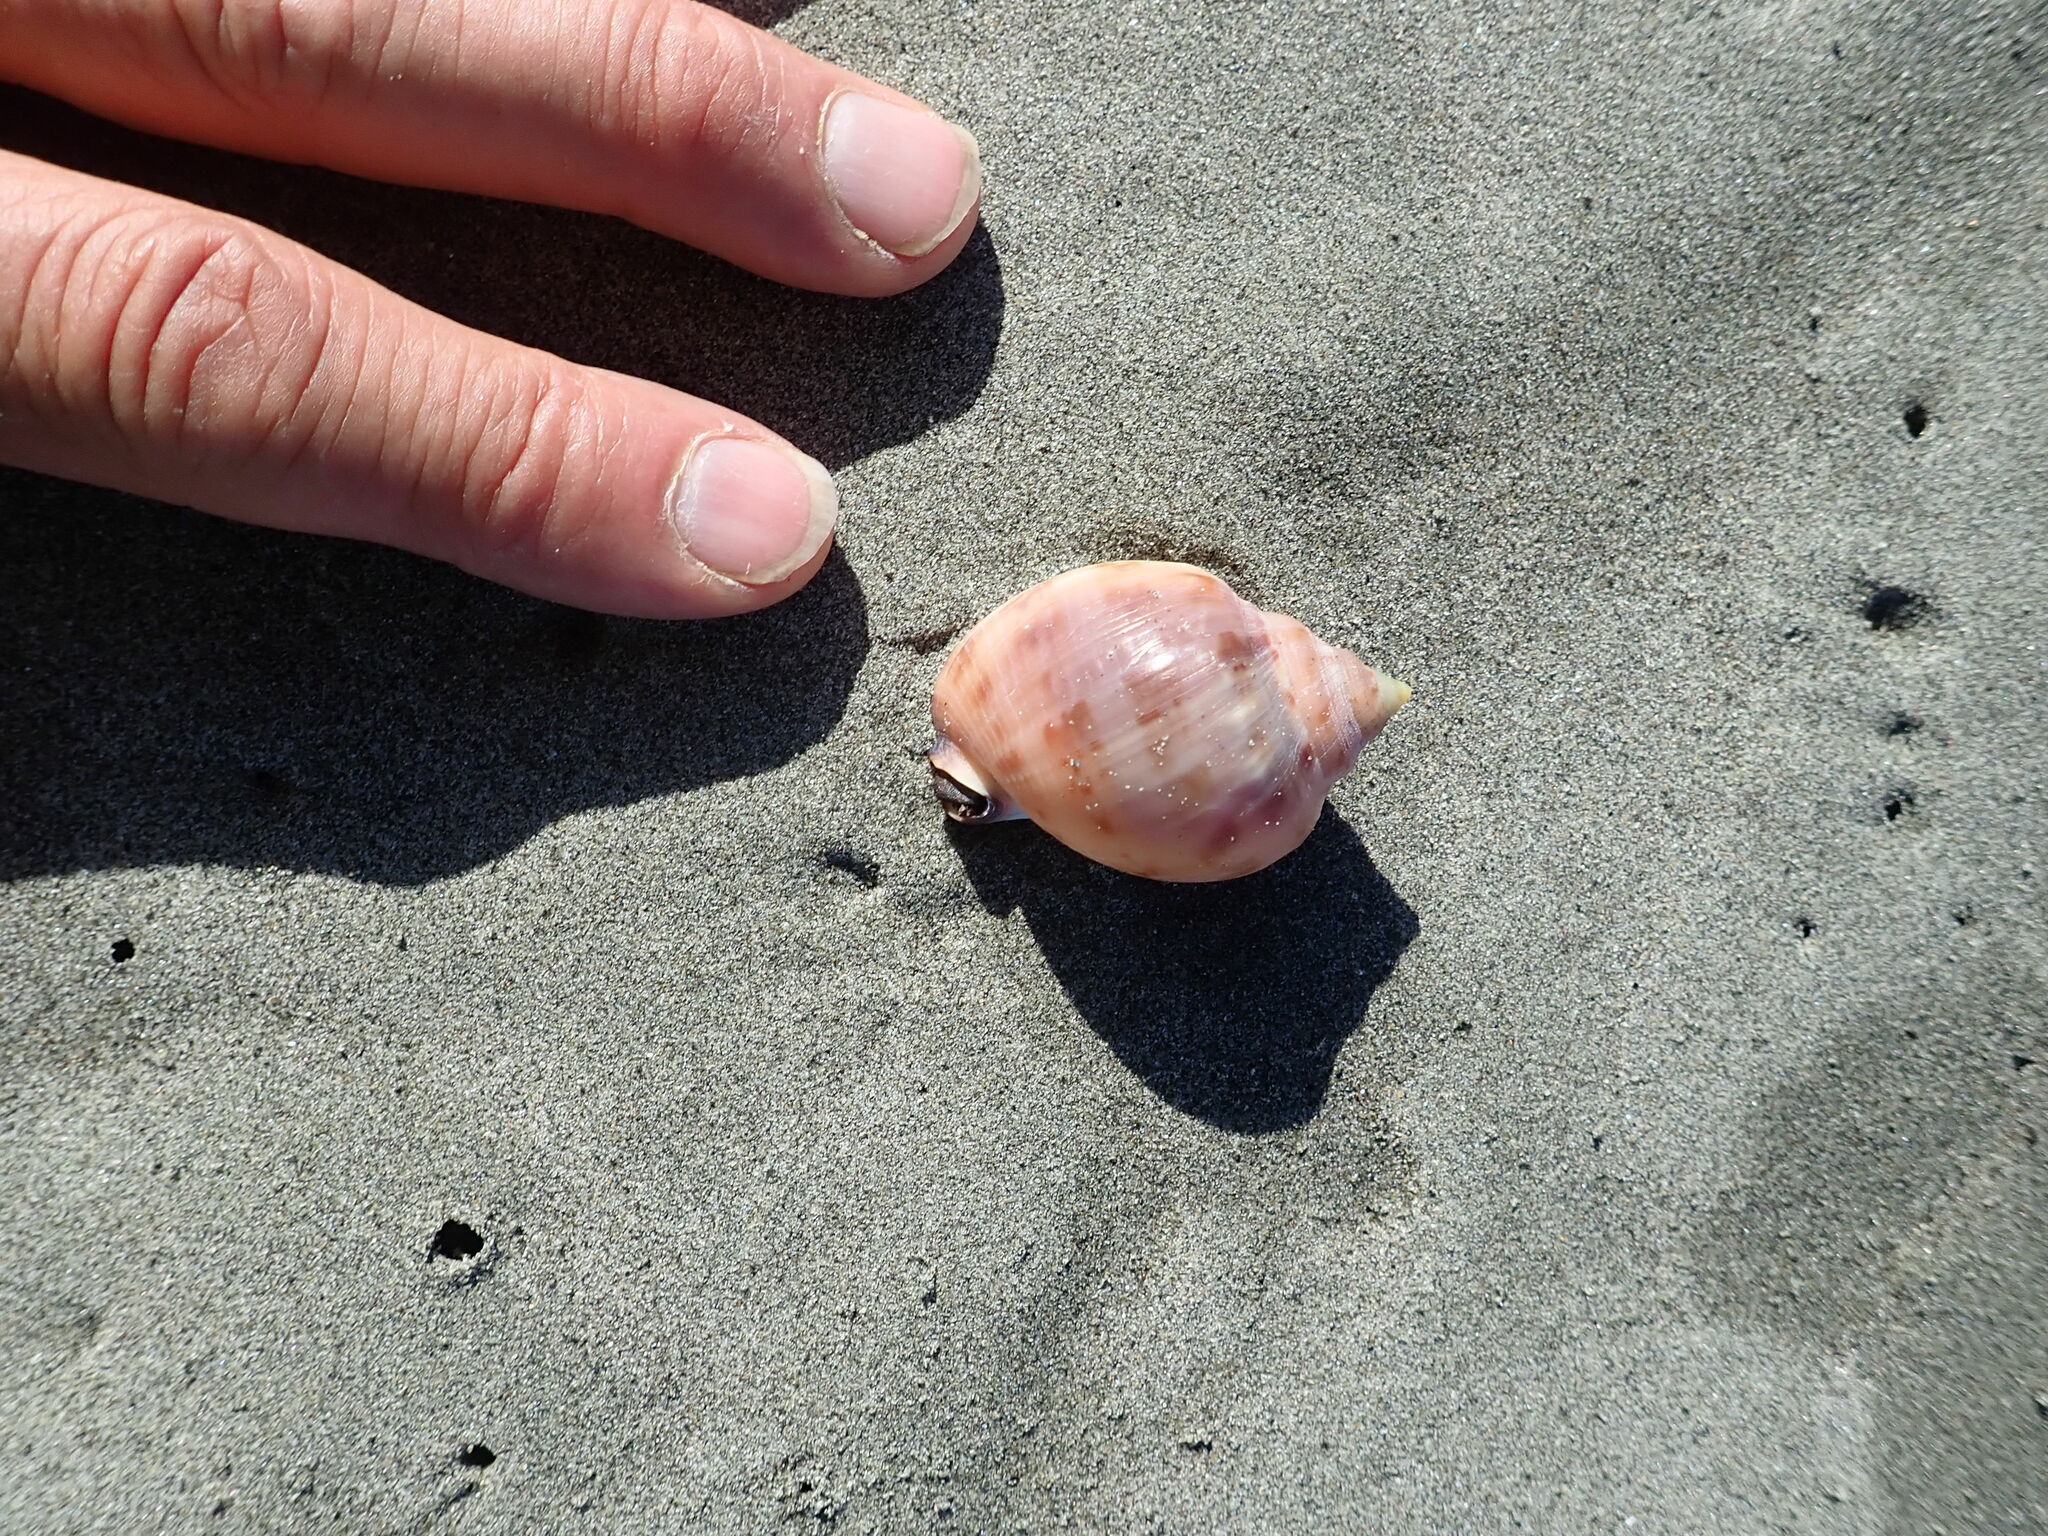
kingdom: Animalia
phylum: Mollusca
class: Gastropoda
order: Littorinimorpha
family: Cassidae
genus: Semicassis
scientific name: Semicassis pyrum
